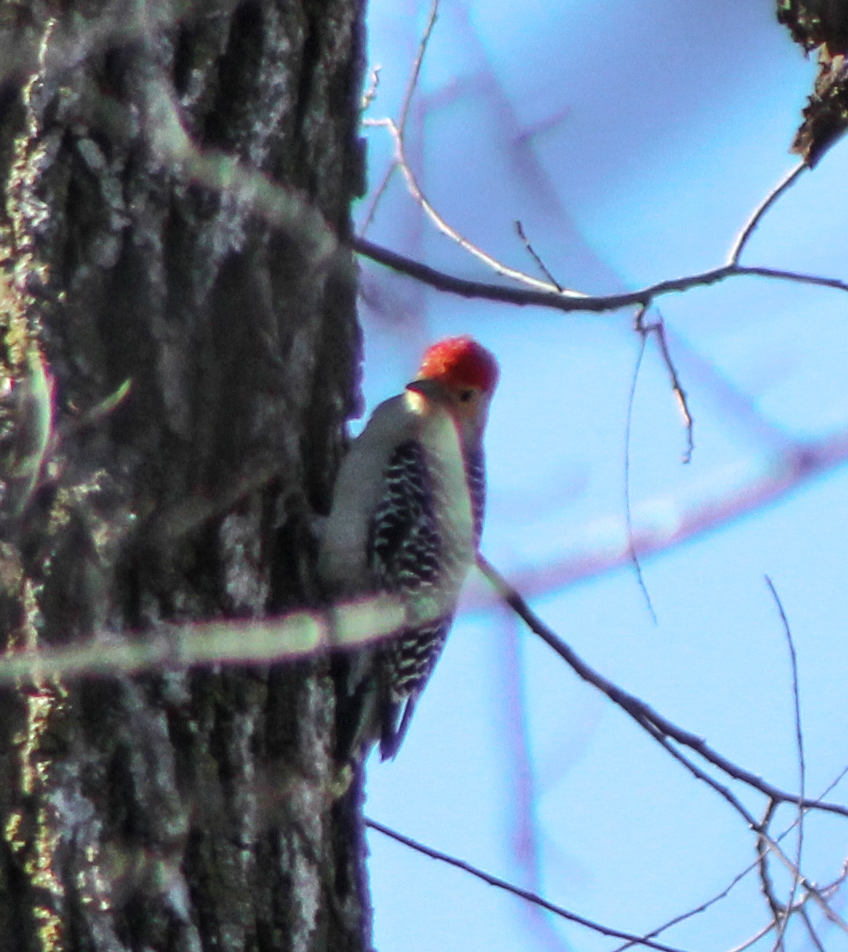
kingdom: Animalia
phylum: Chordata
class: Aves
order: Piciformes
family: Picidae
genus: Melanerpes
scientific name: Melanerpes carolinus
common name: Red-bellied woodpecker
